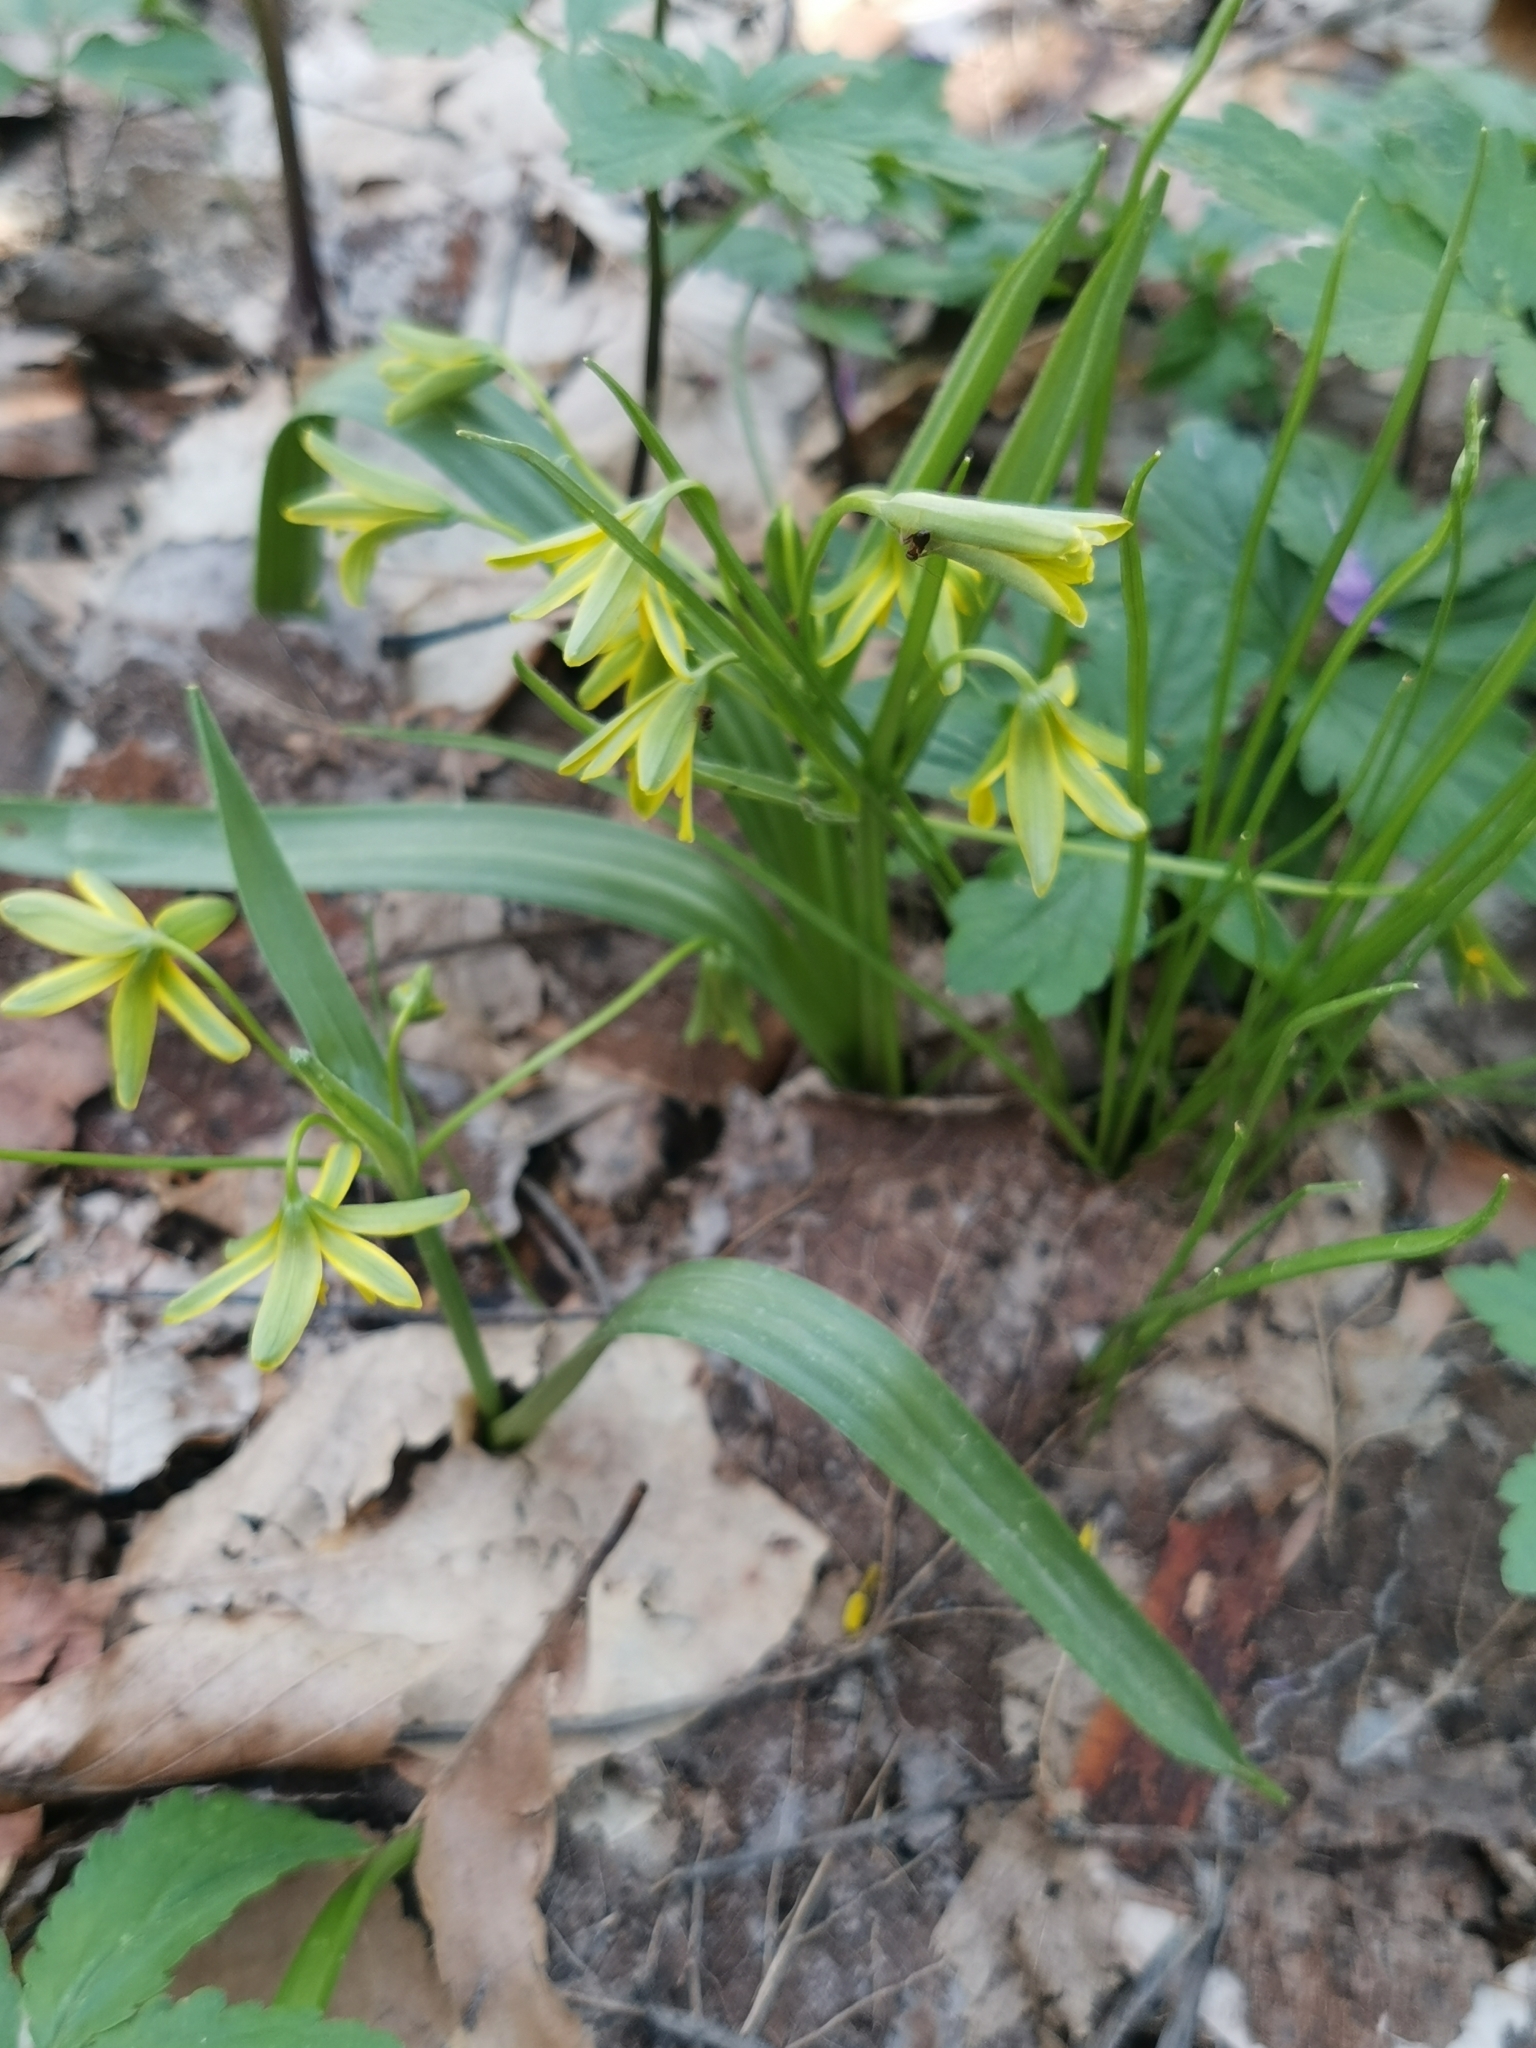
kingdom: Plantae
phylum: Tracheophyta
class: Liliopsida
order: Liliales
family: Liliaceae
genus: Gagea
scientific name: Gagea lutea
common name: Yellow star-of-bethlehem
